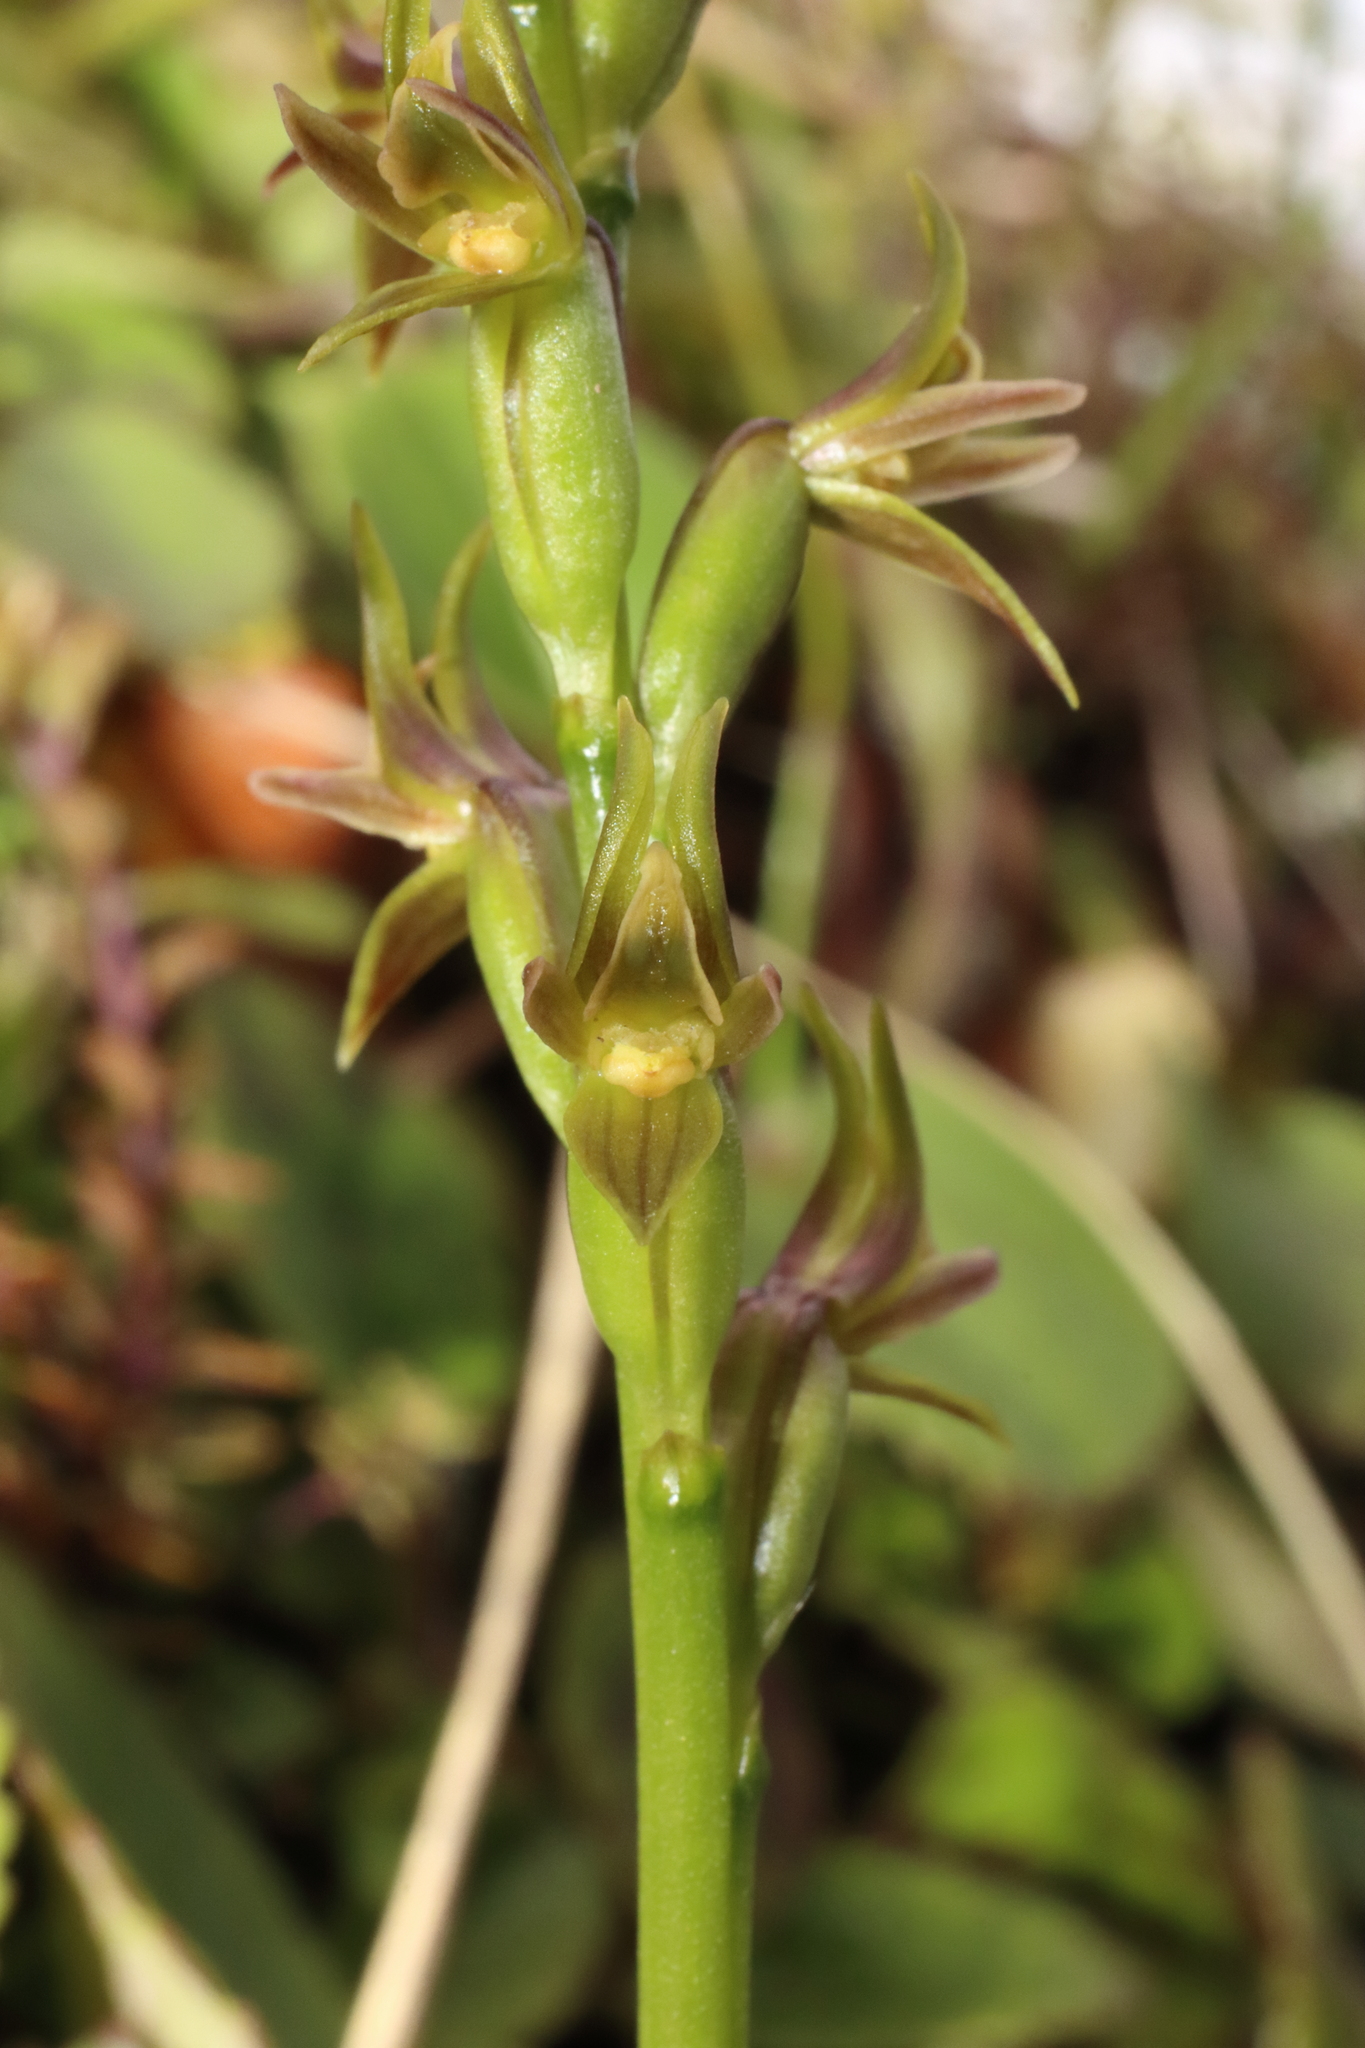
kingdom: Plantae
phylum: Tracheophyta
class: Liliopsida
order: Asparagales
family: Orchidaceae
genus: Prasophyllum
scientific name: Prasophyllum colensoi
